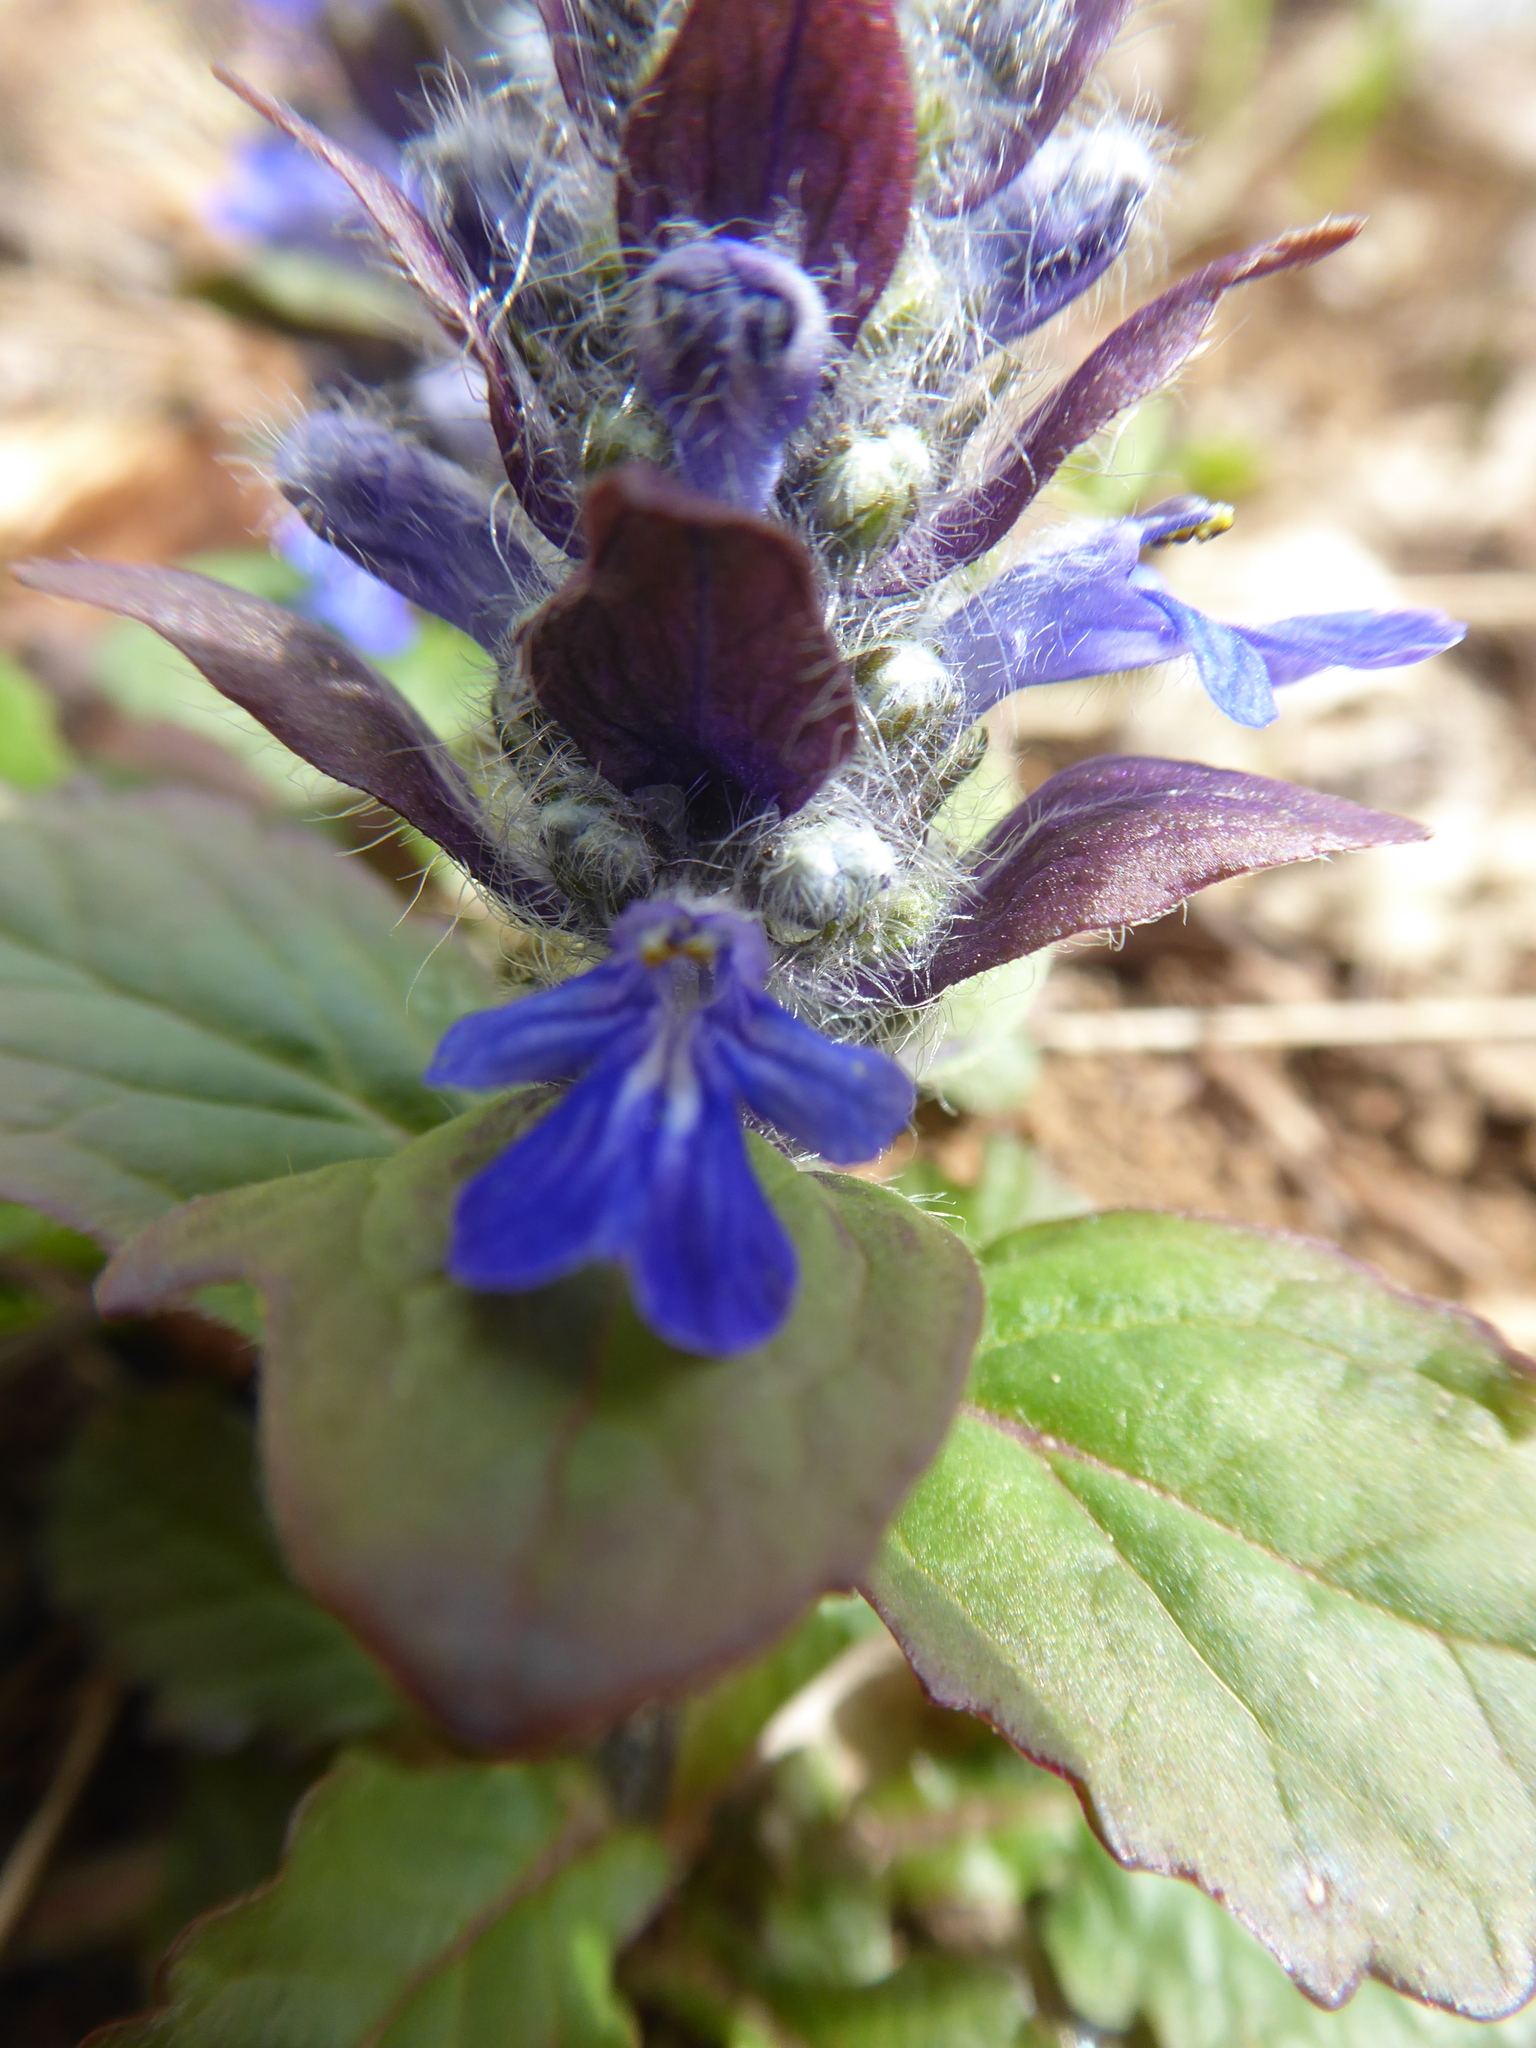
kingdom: Plantae
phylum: Tracheophyta
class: Magnoliopsida
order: Lamiales
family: Lamiaceae
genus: Ajuga
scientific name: Ajuga reptans
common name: Bugle
